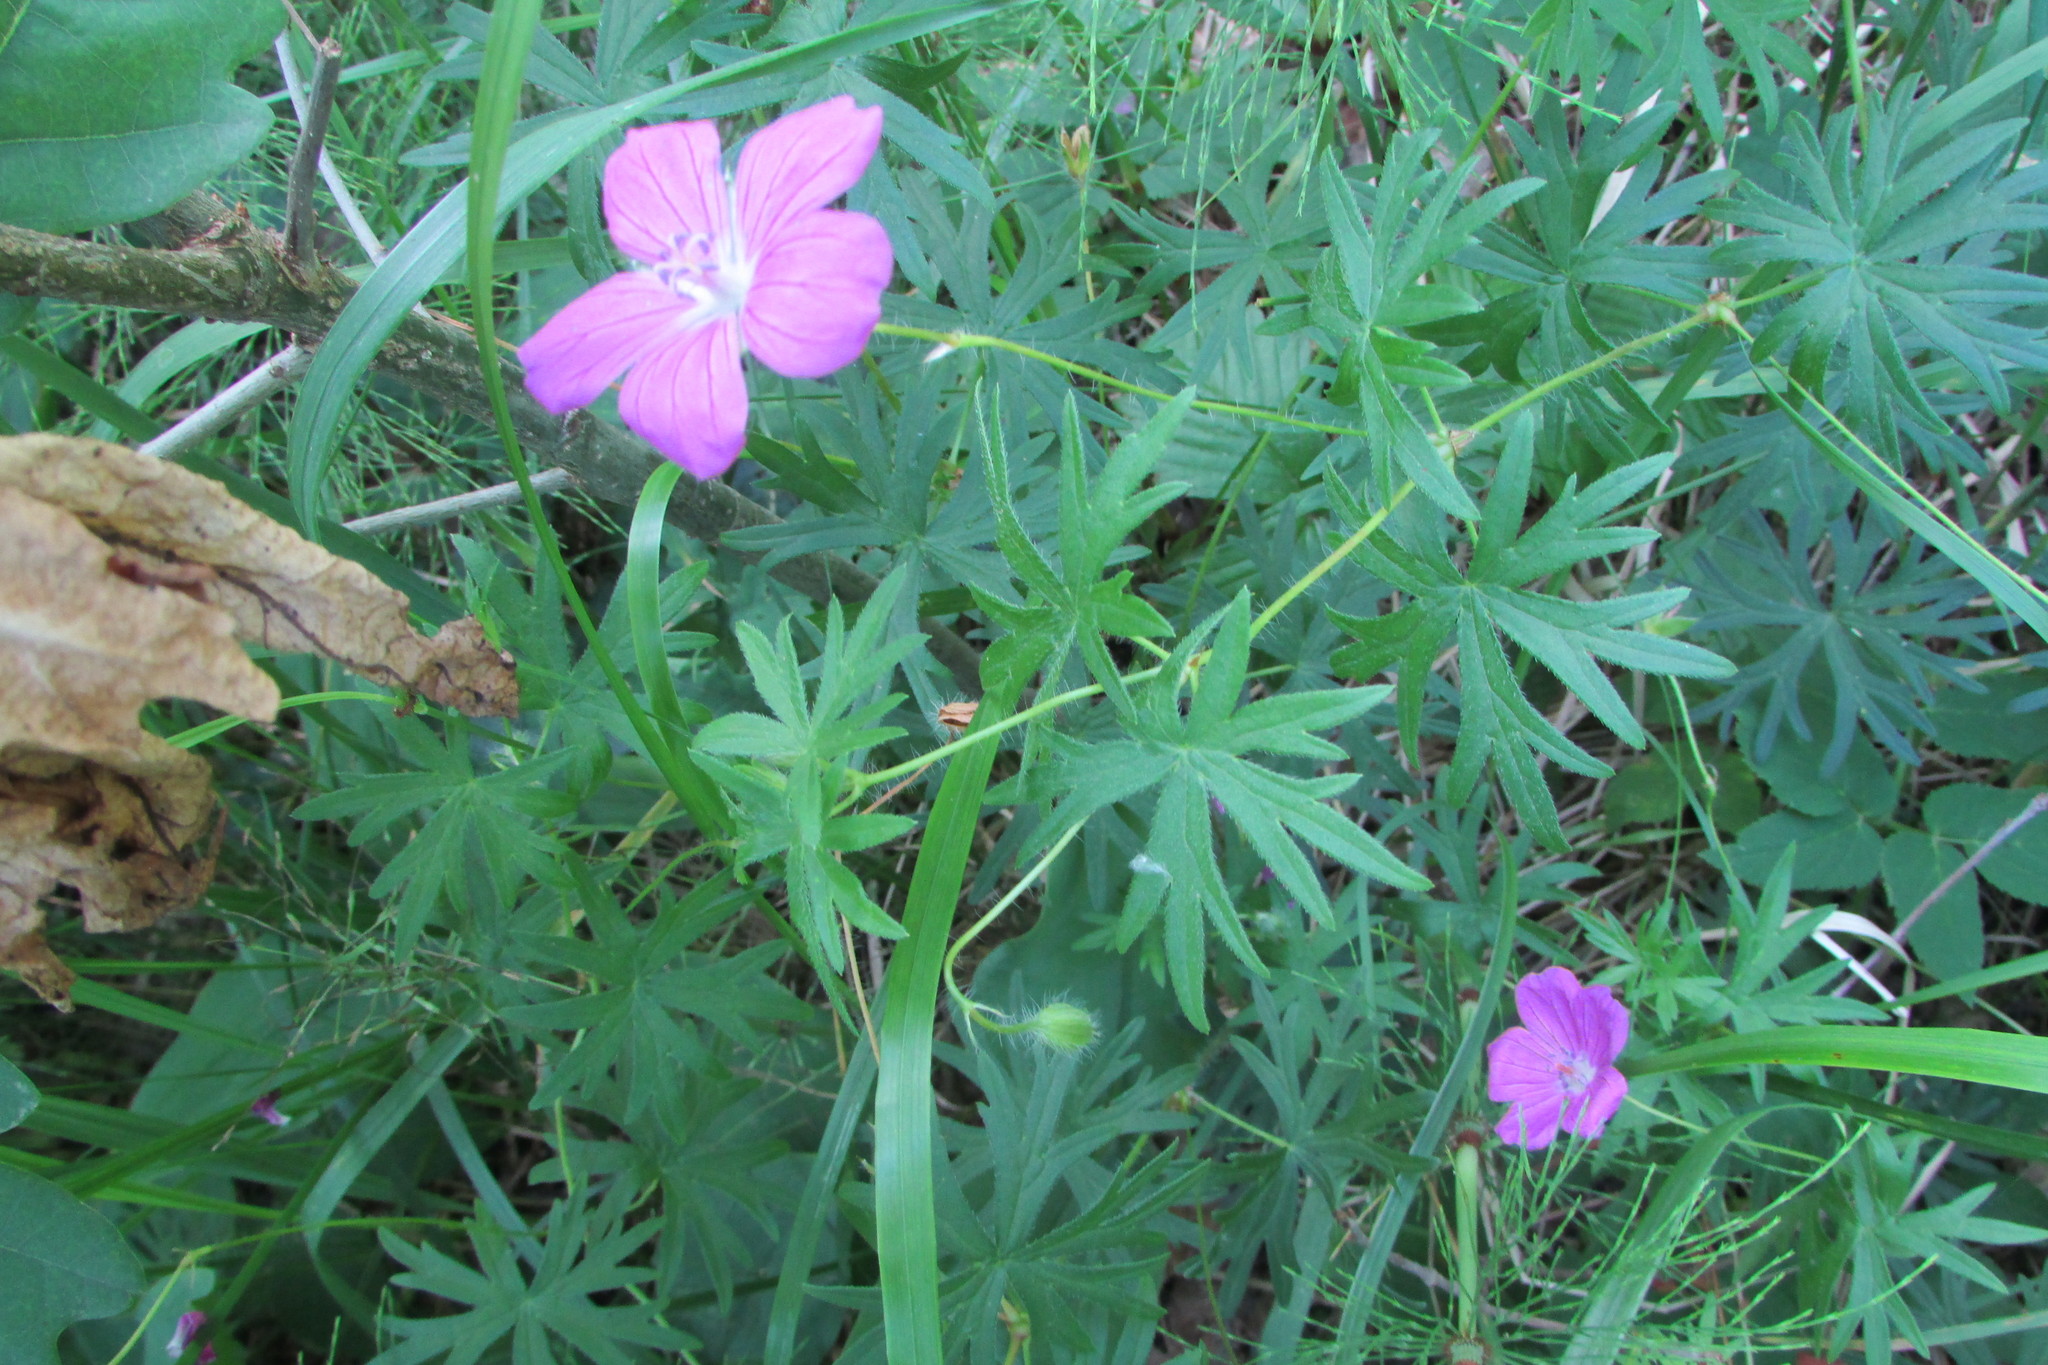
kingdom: Plantae
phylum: Tracheophyta
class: Magnoliopsida
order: Geraniales
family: Geraniaceae
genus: Geranium
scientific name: Geranium sanguineum
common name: Bloody crane's-bill
